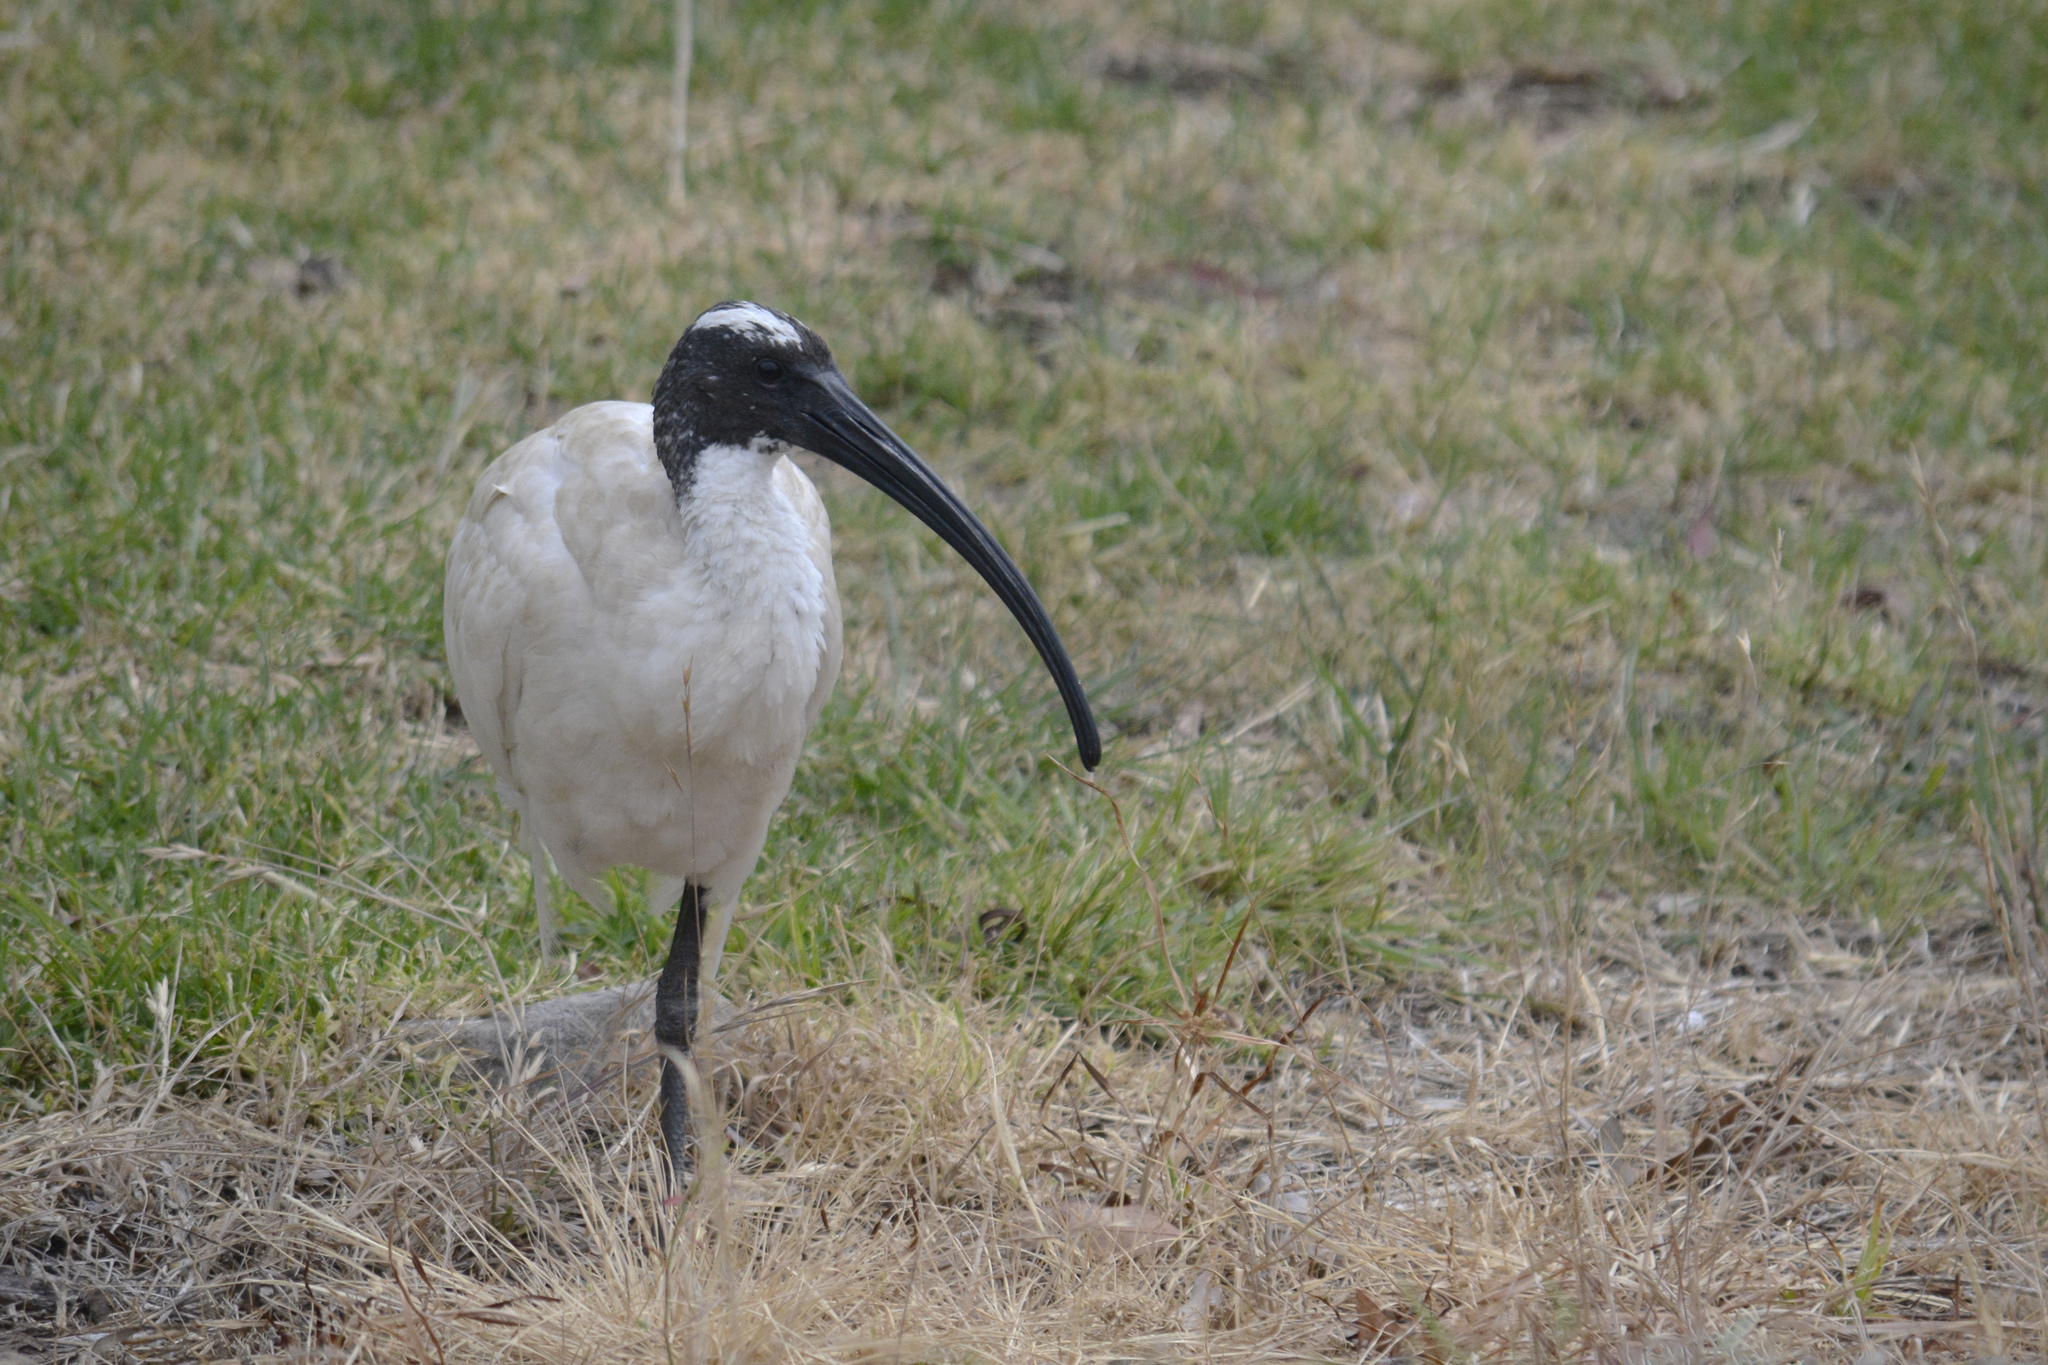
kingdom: Animalia
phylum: Chordata
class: Aves
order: Pelecaniformes
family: Threskiornithidae
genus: Threskiornis
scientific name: Threskiornis molucca
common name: Australian white ibis
